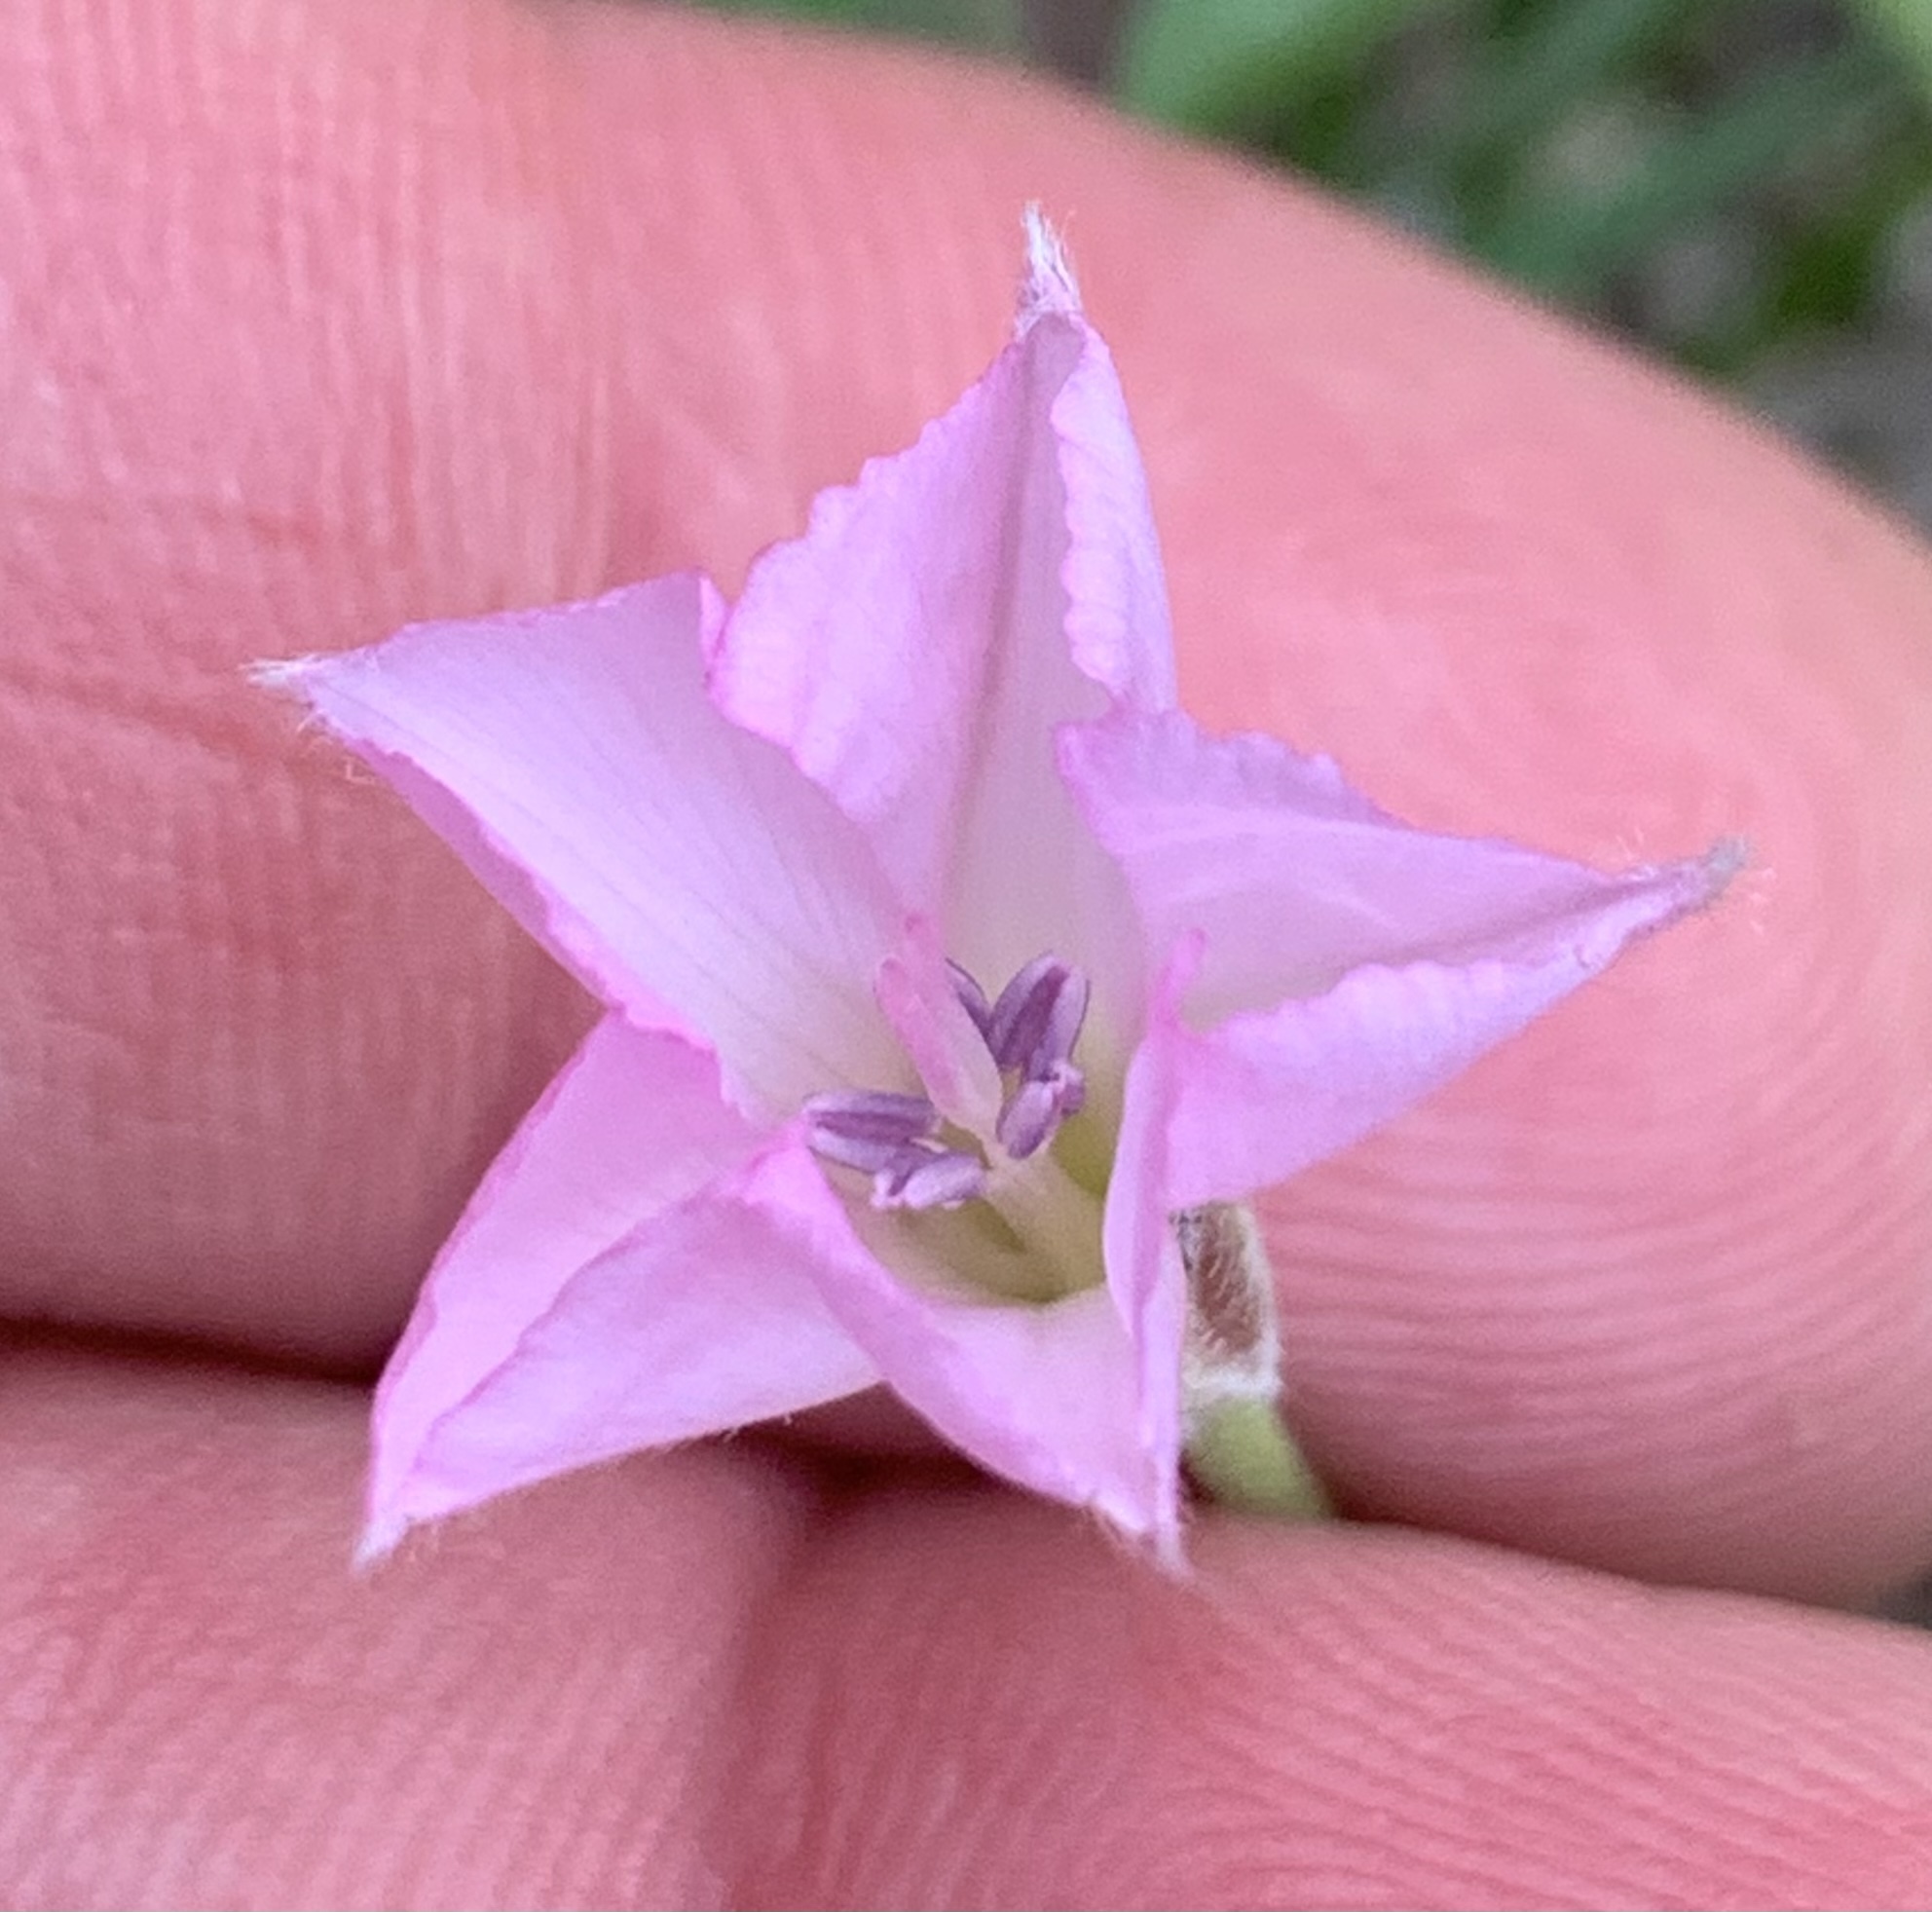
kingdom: Plantae
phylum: Tracheophyta
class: Magnoliopsida
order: Solanales
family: Convolvulaceae
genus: Convolvulus
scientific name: Convolvulus equitans
